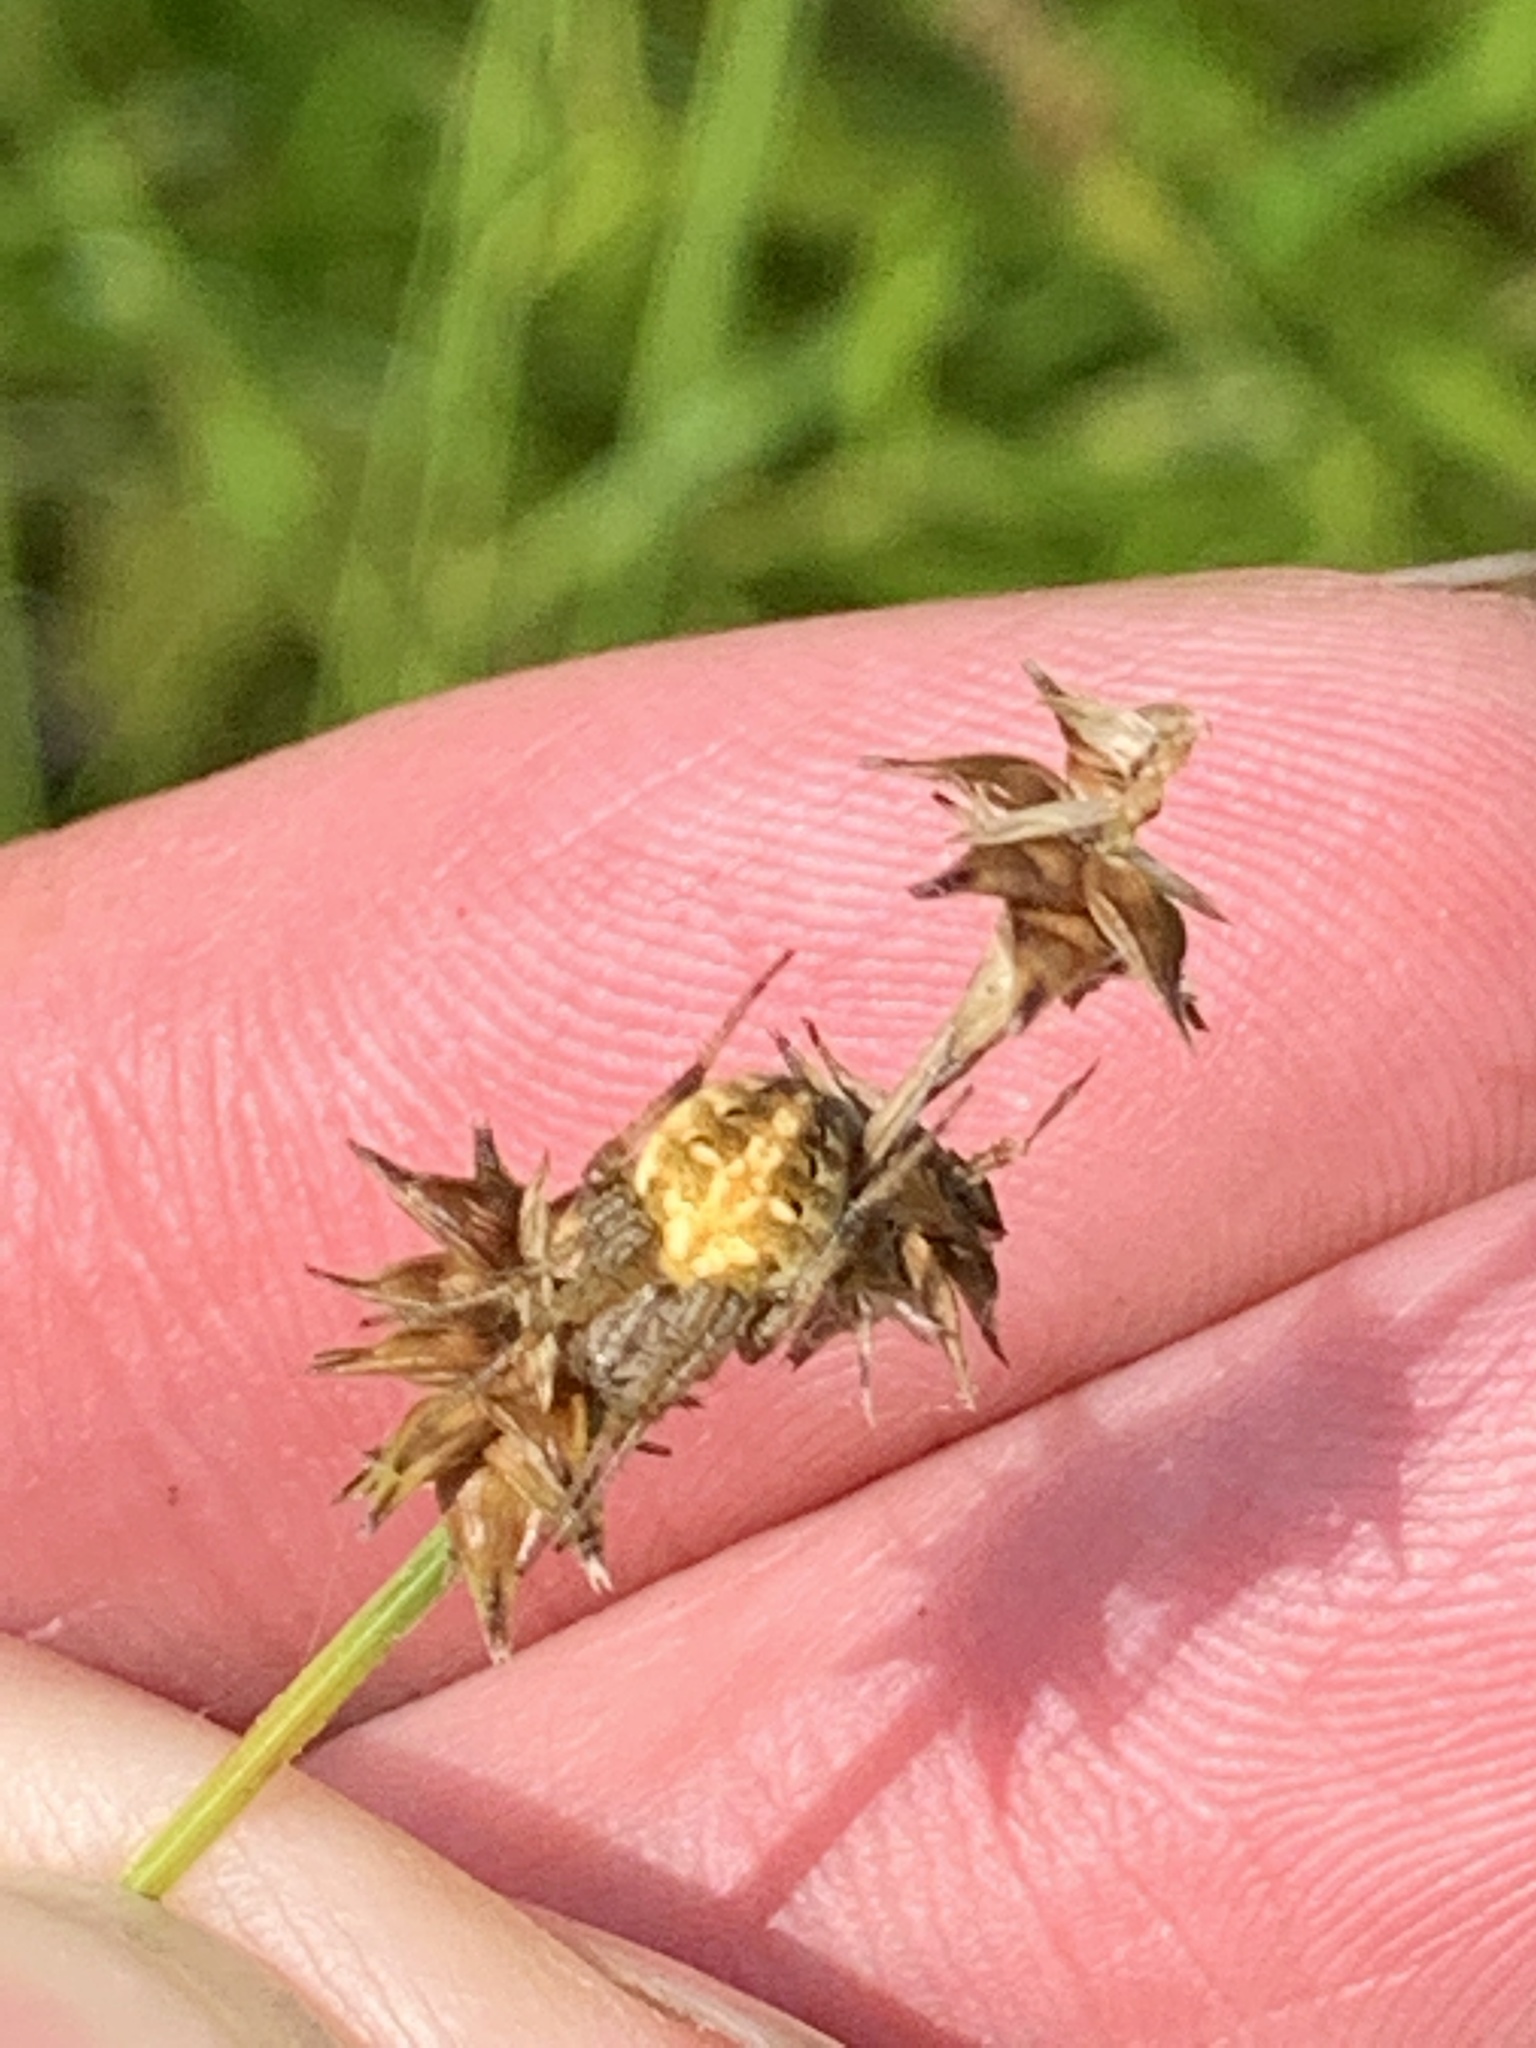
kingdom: Animalia
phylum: Arthropoda
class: Arachnida
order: Araneae
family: Araneidae
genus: Neoscona
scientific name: Neoscona arabesca
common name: Orb weavers
